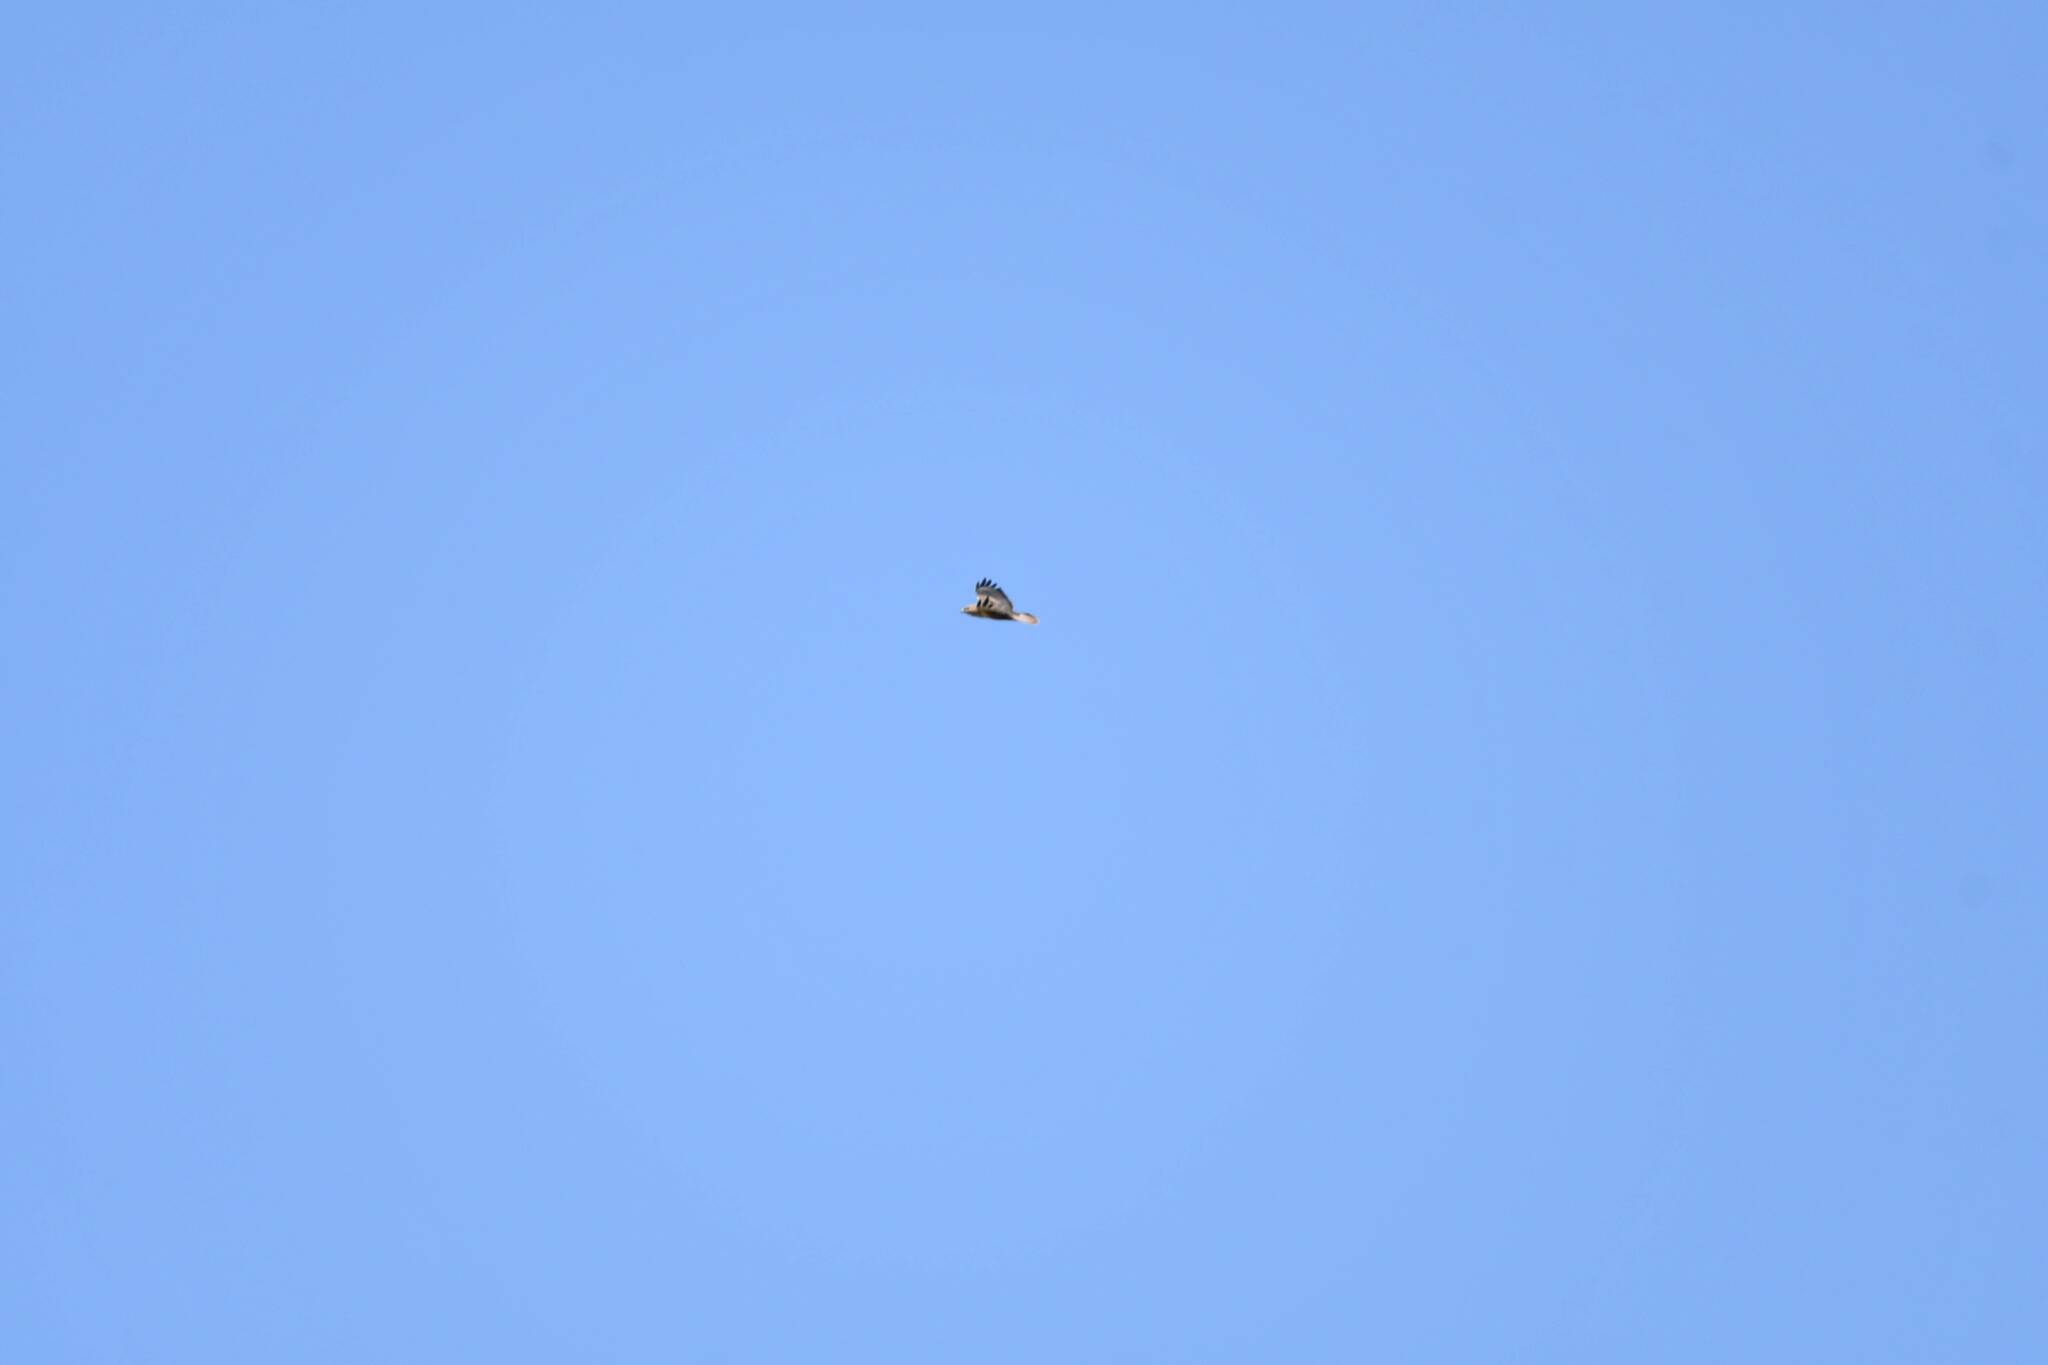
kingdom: Animalia
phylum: Chordata
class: Aves
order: Accipitriformes
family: Accipitridae
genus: Buteo
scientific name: Buteo rufinus
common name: Long-legged buzzard
